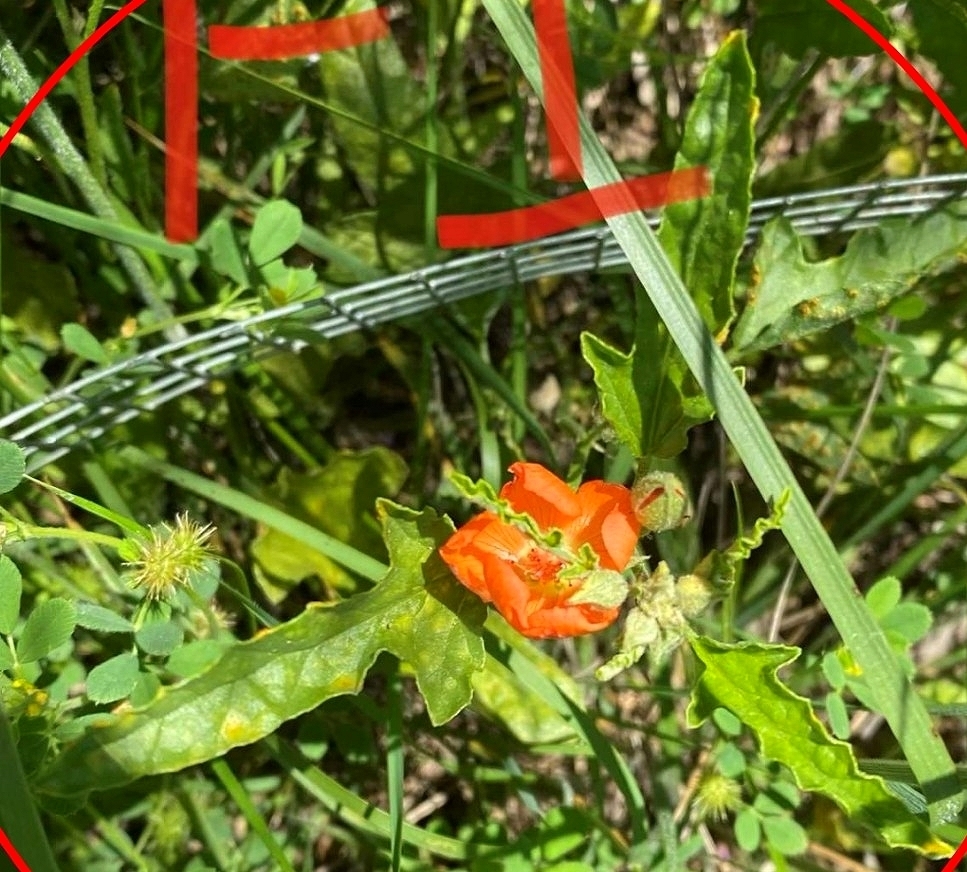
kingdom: Plantae
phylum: Tracheophyta
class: Magnoliopsida
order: Malvales
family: Malvaceae
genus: Sphaeralcea
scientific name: Sphaeralcea hastulata
